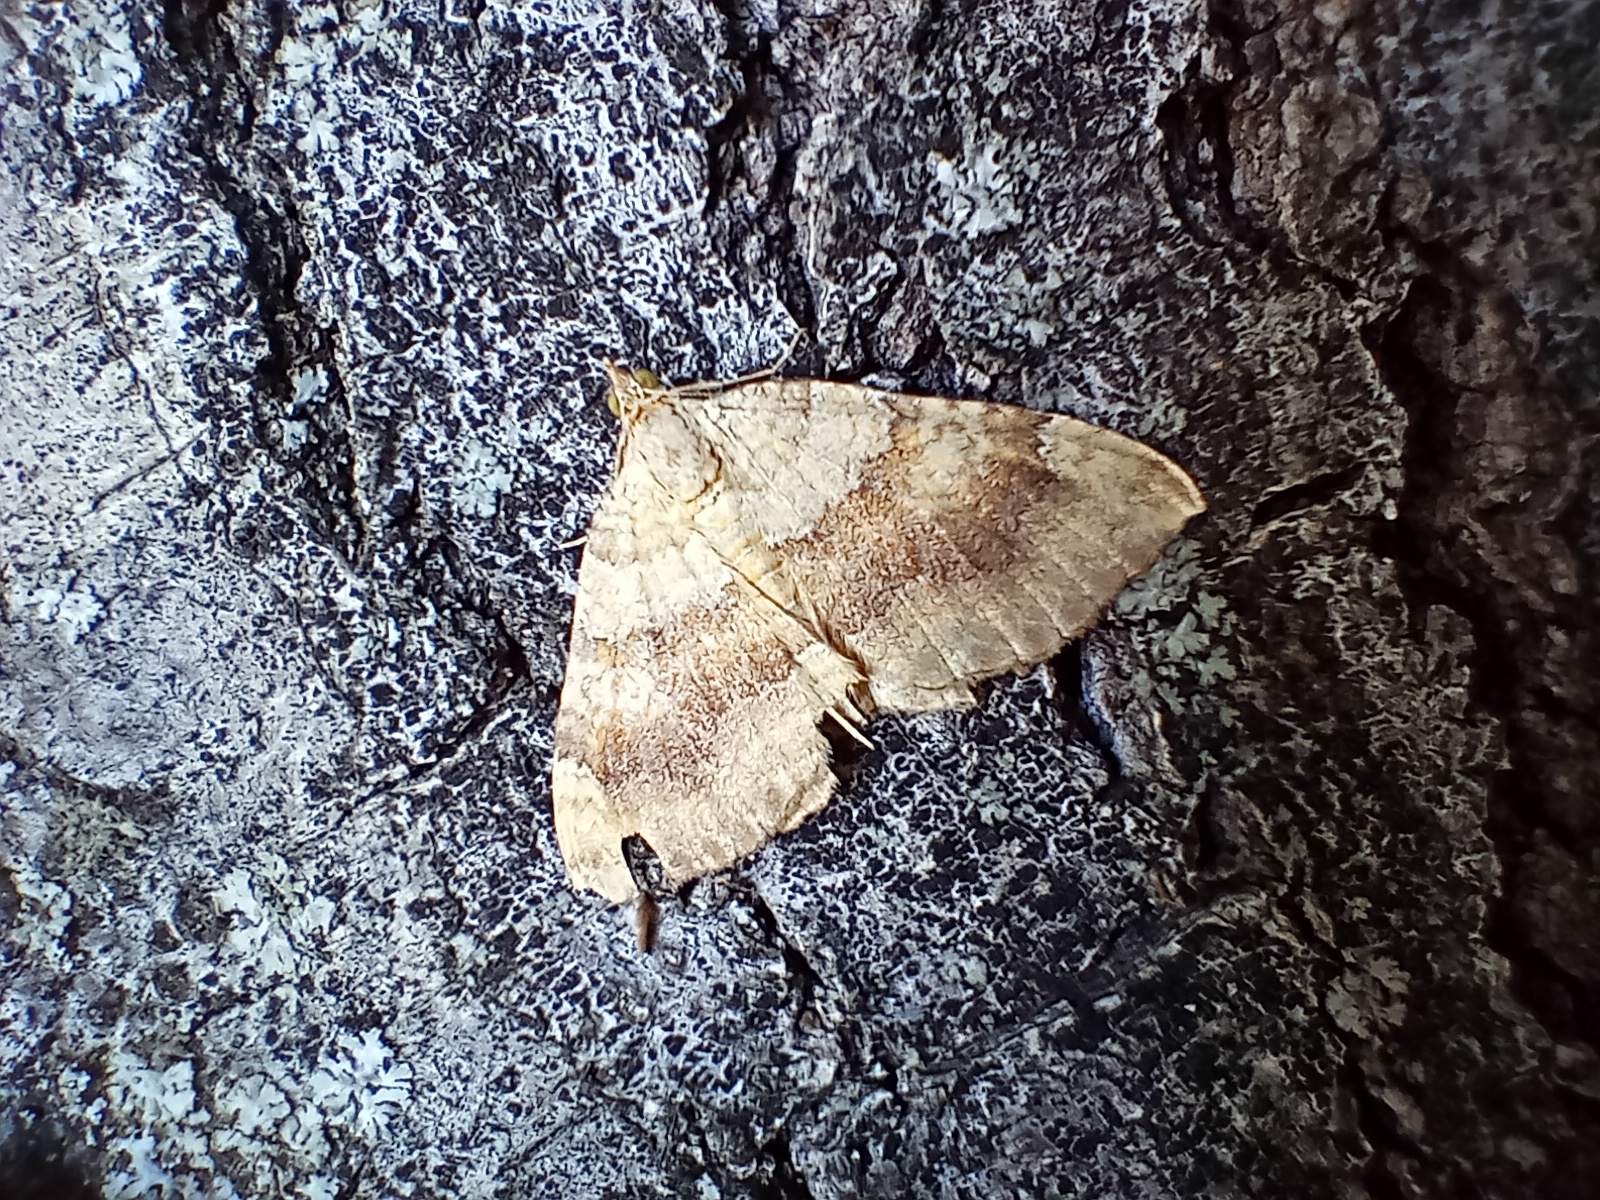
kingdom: Animalia
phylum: Arthropoda
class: Insecta
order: Lepidoptera
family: Geometridae
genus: Camptogramma
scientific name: Camptogramma bilineata
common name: Yellow shell
